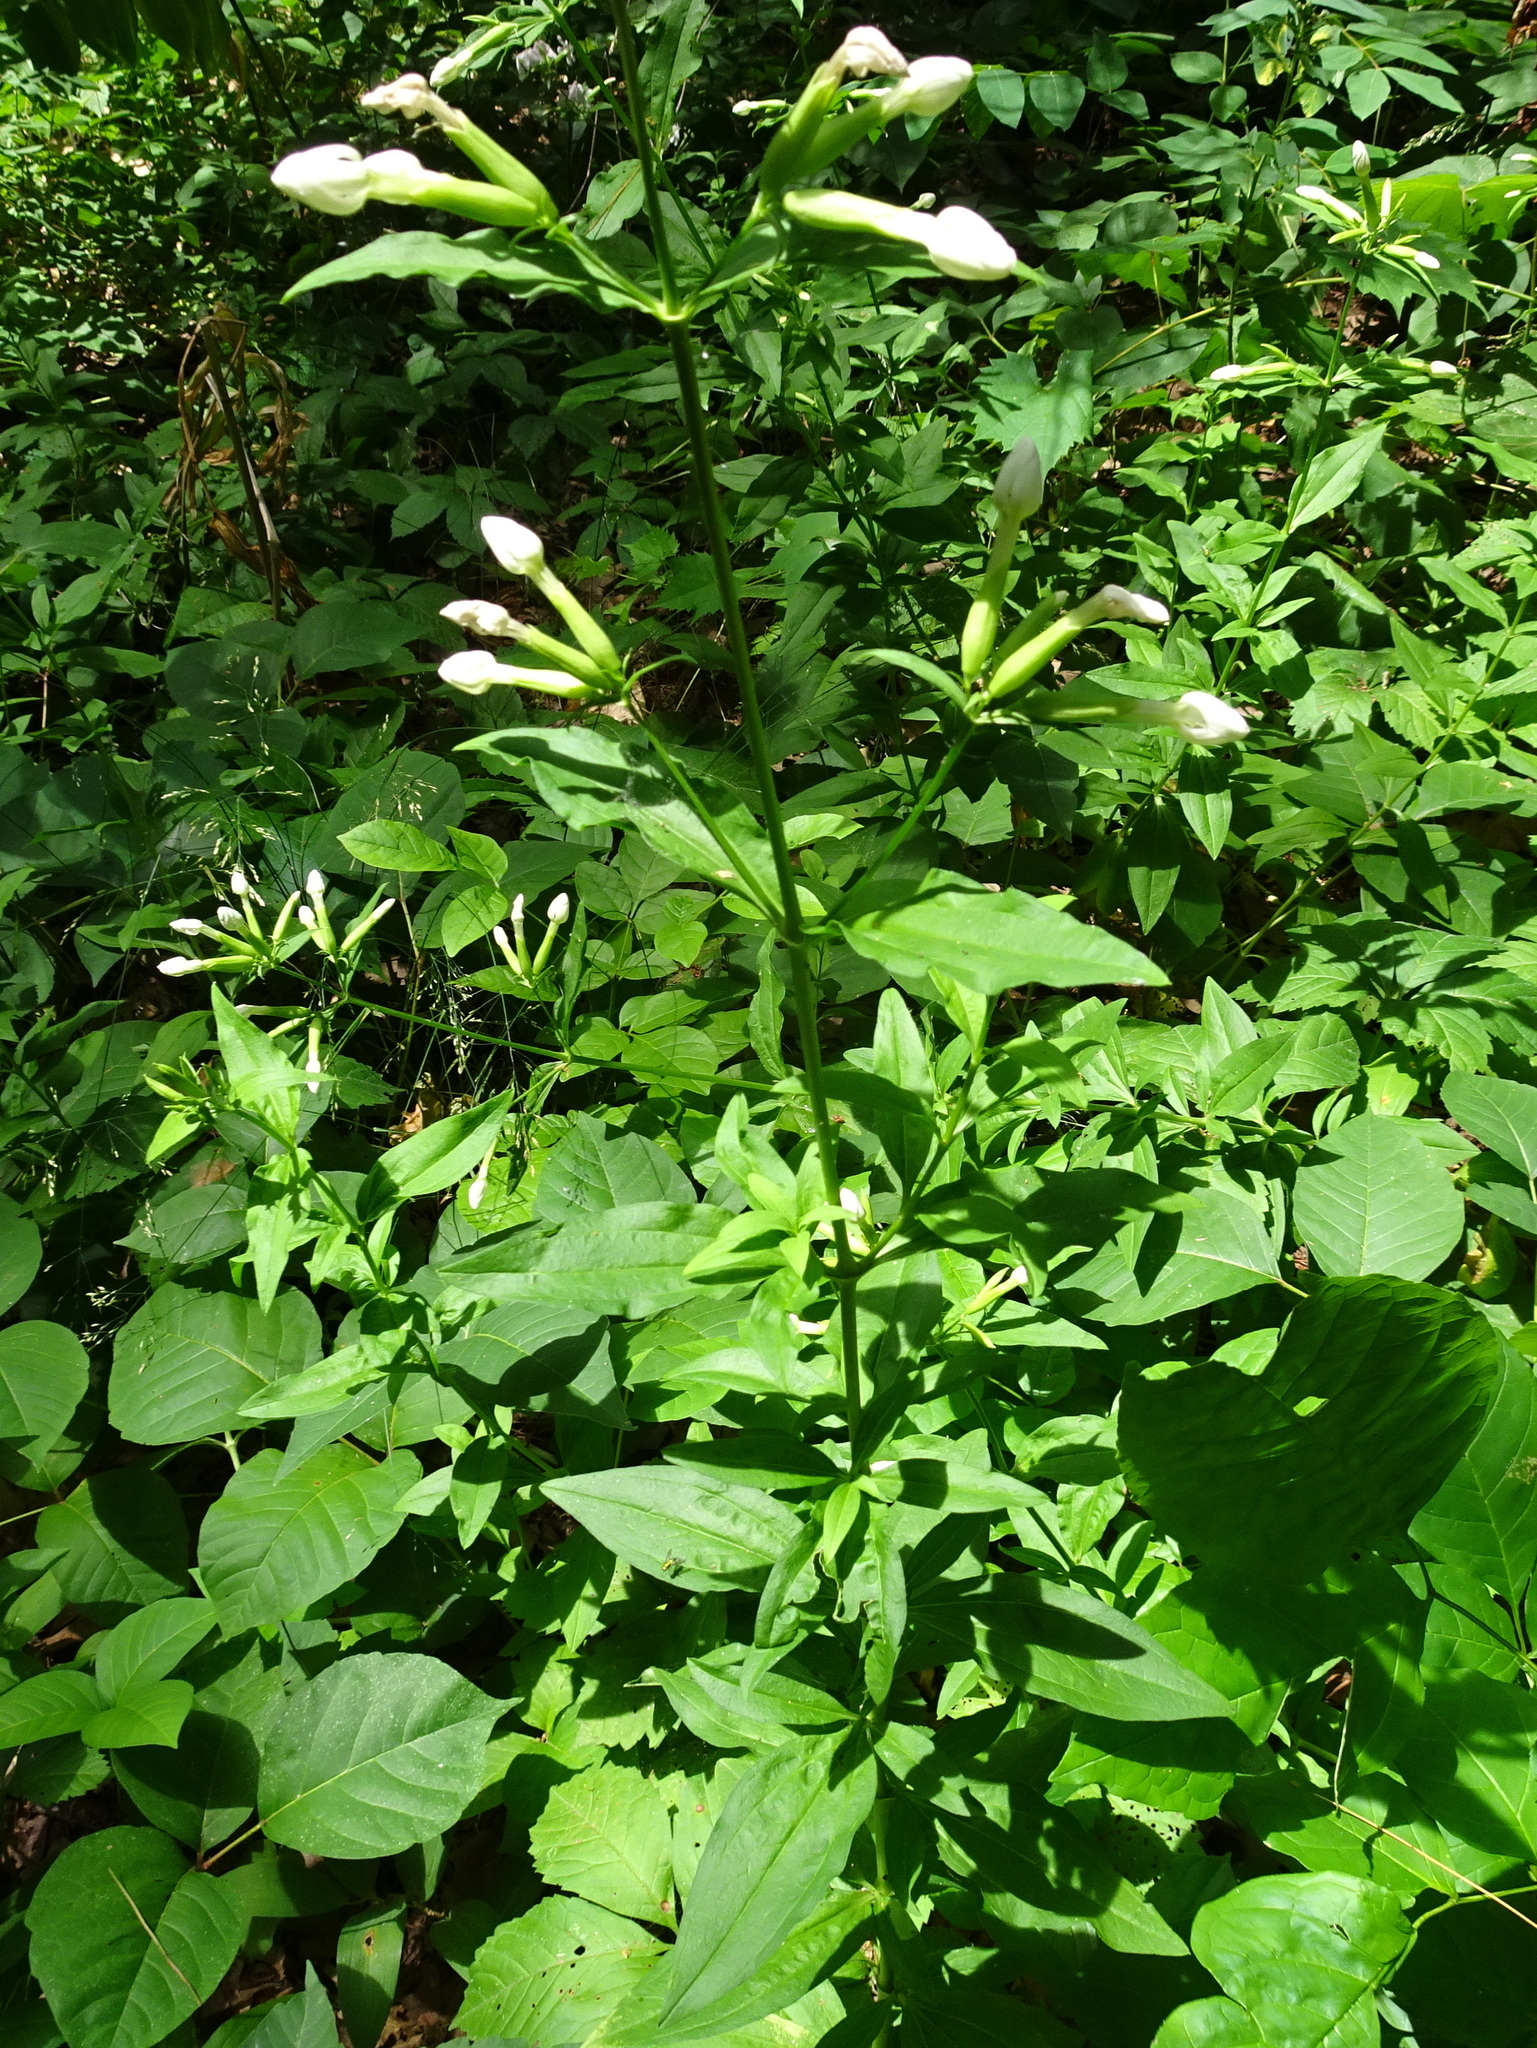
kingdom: Plantae
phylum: Tracheophyta
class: Magnoliopsida
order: Caryophyllales
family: Caryophyllaceae
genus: Saponaria
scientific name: Saponaria officinalis
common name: Soapwort
